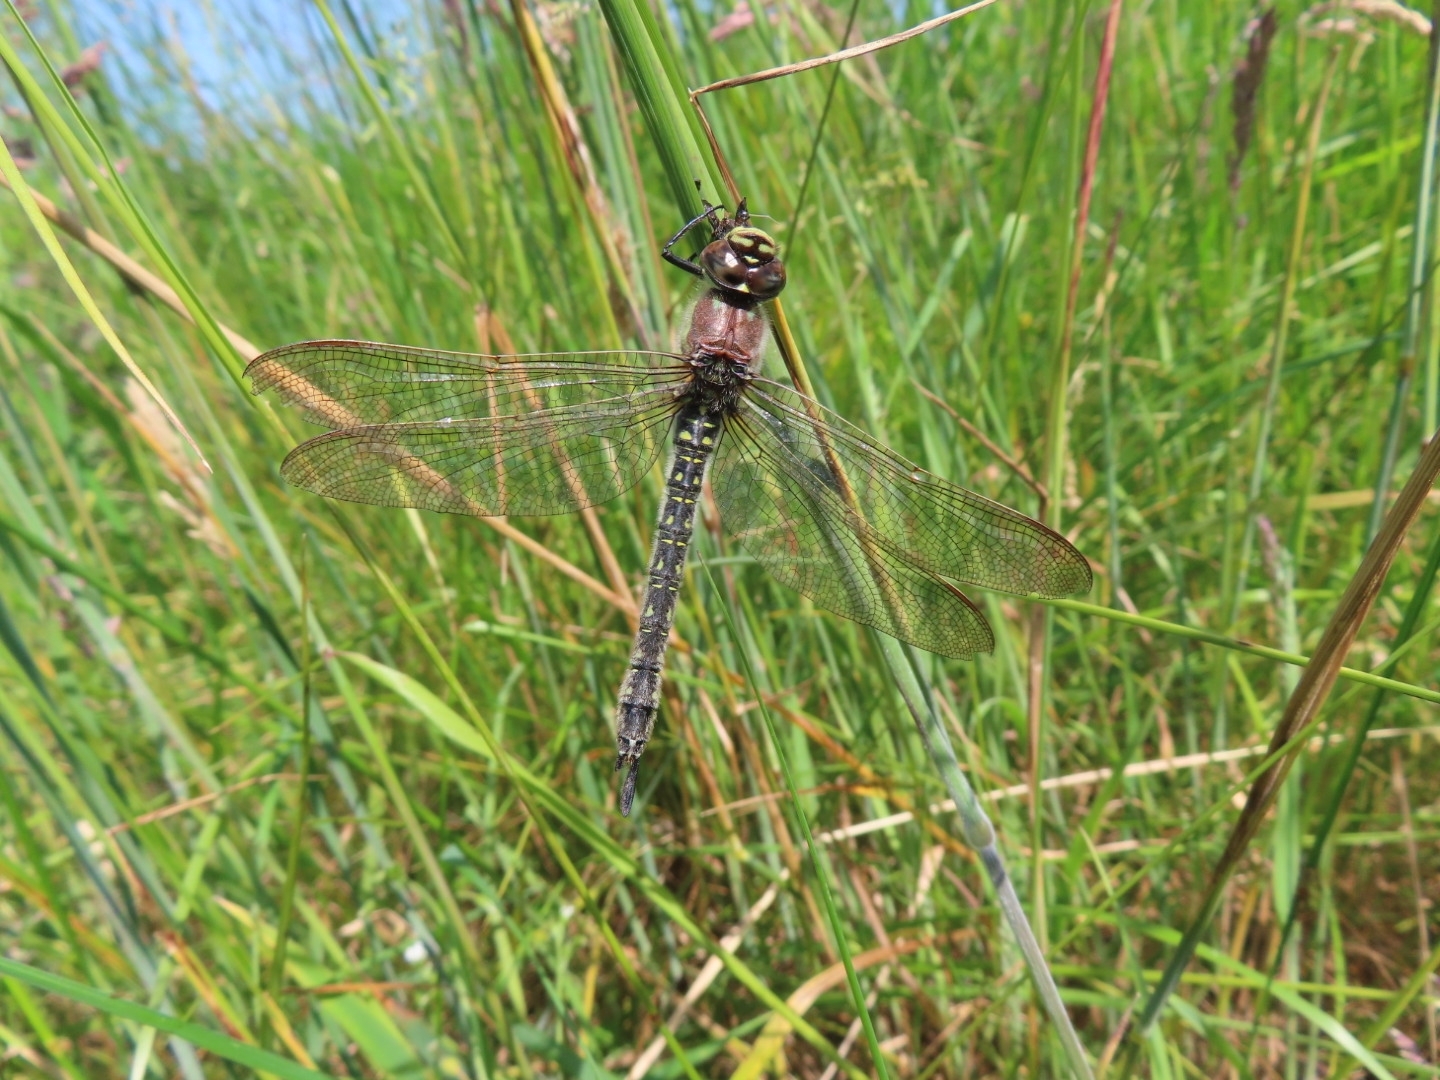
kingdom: Animalia
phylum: Arthropoda
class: Insecta
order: Odonata
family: Aeshnidae
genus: Brachytron
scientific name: Brachytron pratense
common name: Hairy hawker
